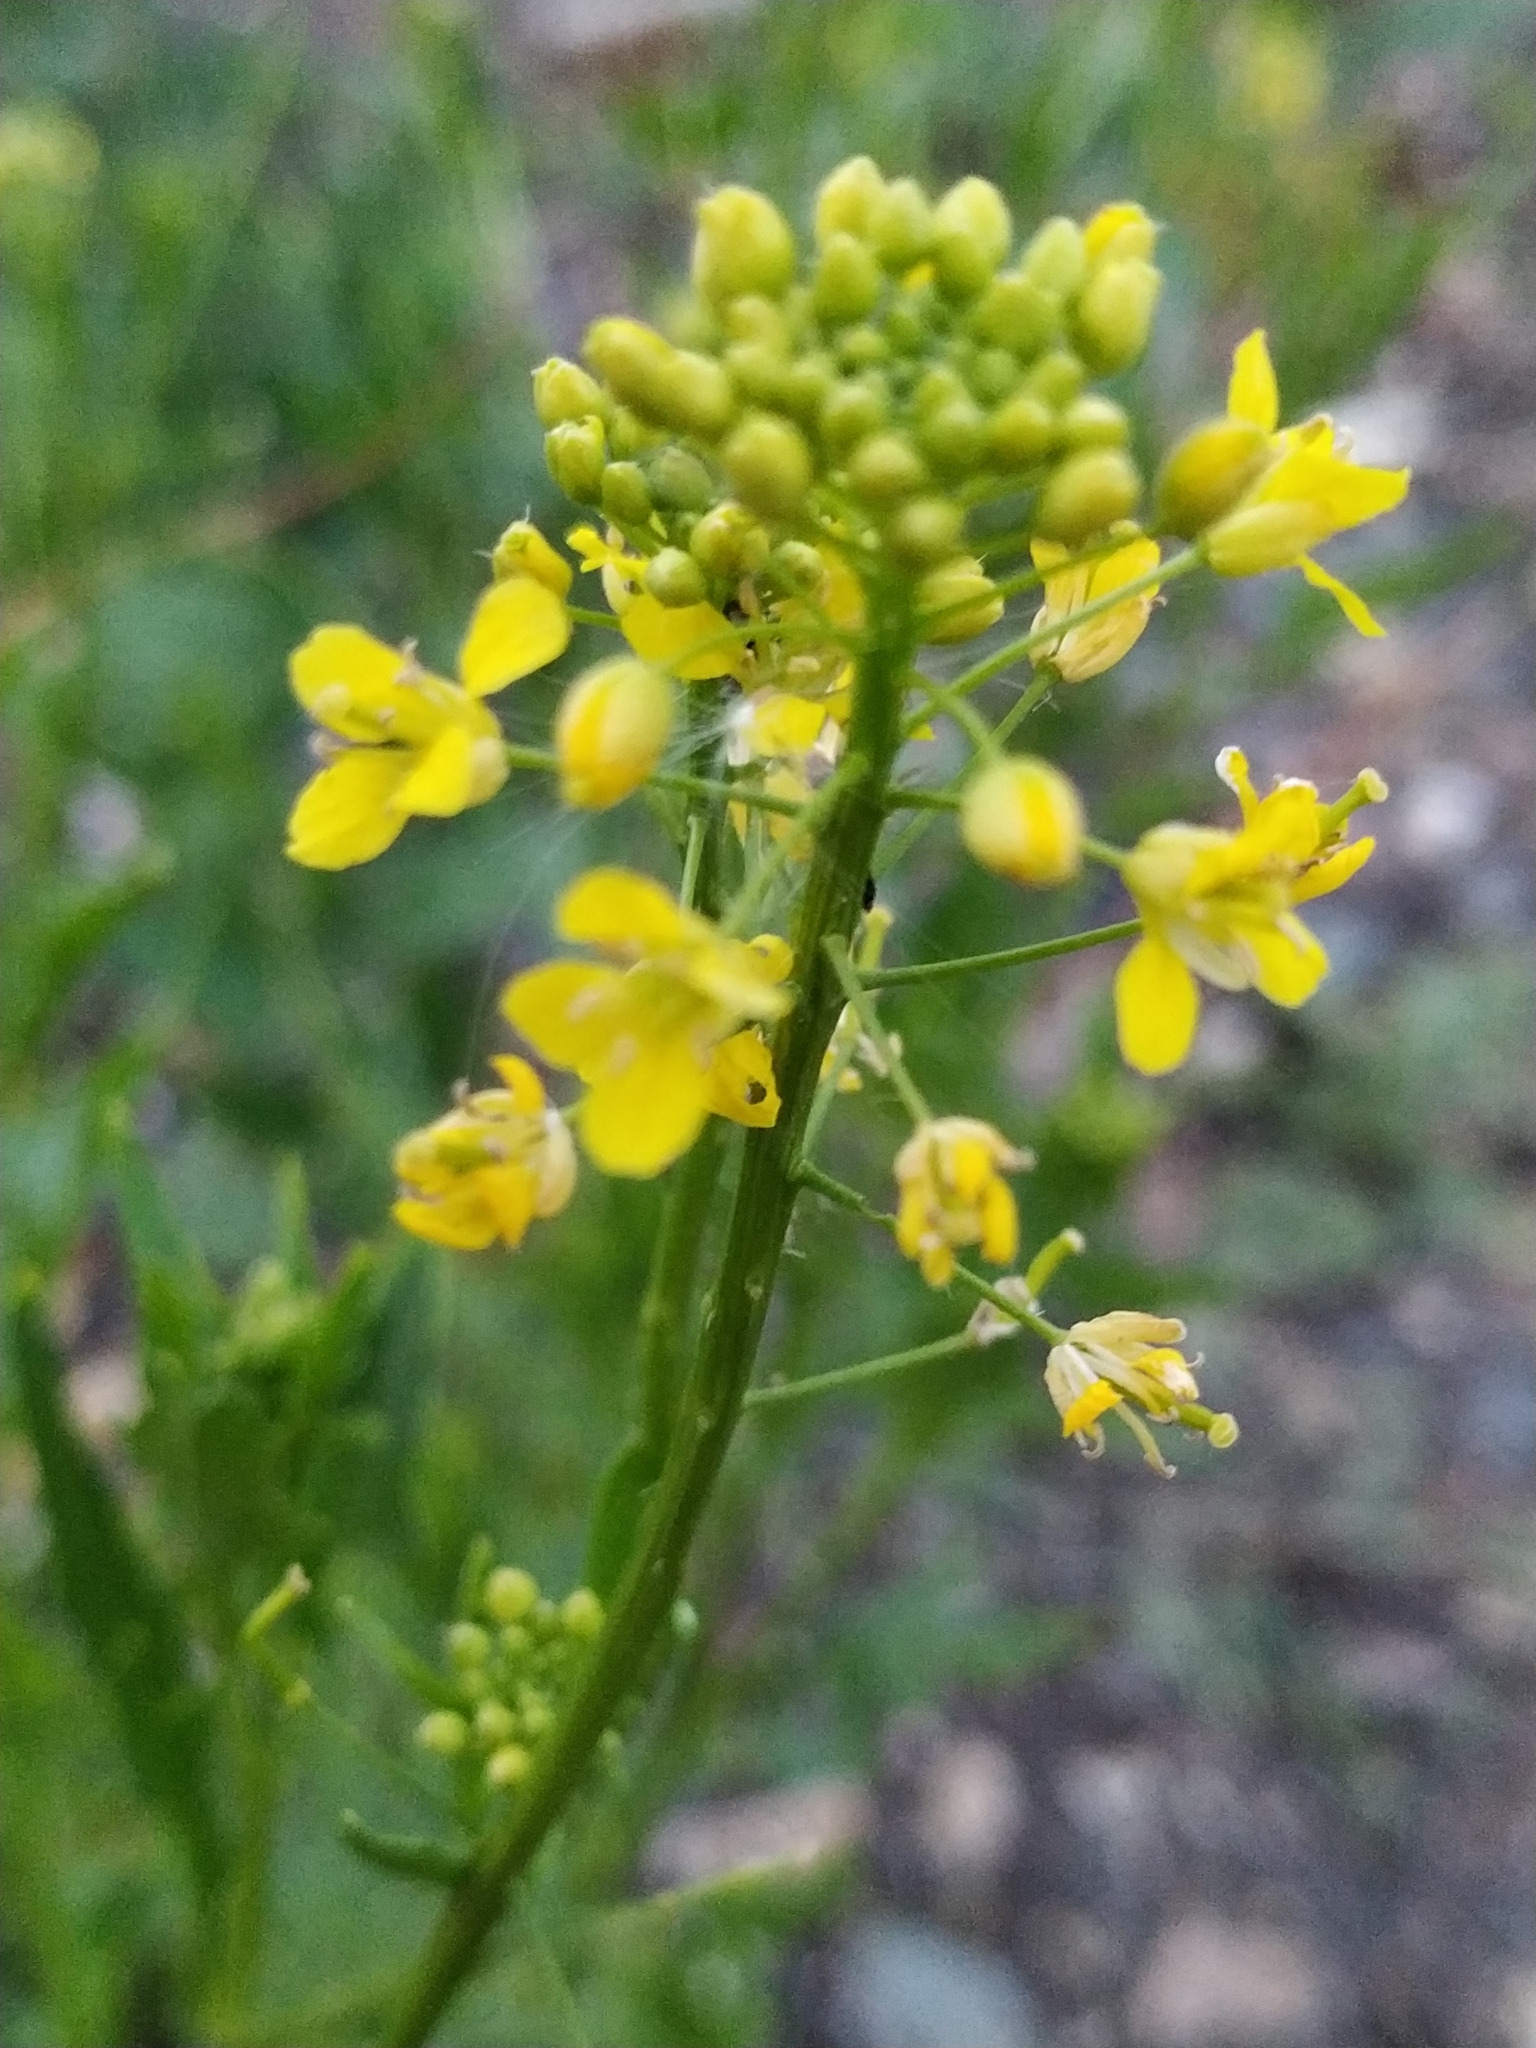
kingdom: Plantae
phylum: Tracheophyta
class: Magnoliopsida
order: Brassicales
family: Brassicaceae
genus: Diplotaxis
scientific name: Diplotaxis tenuifolia
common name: Perennial wall-rocket
